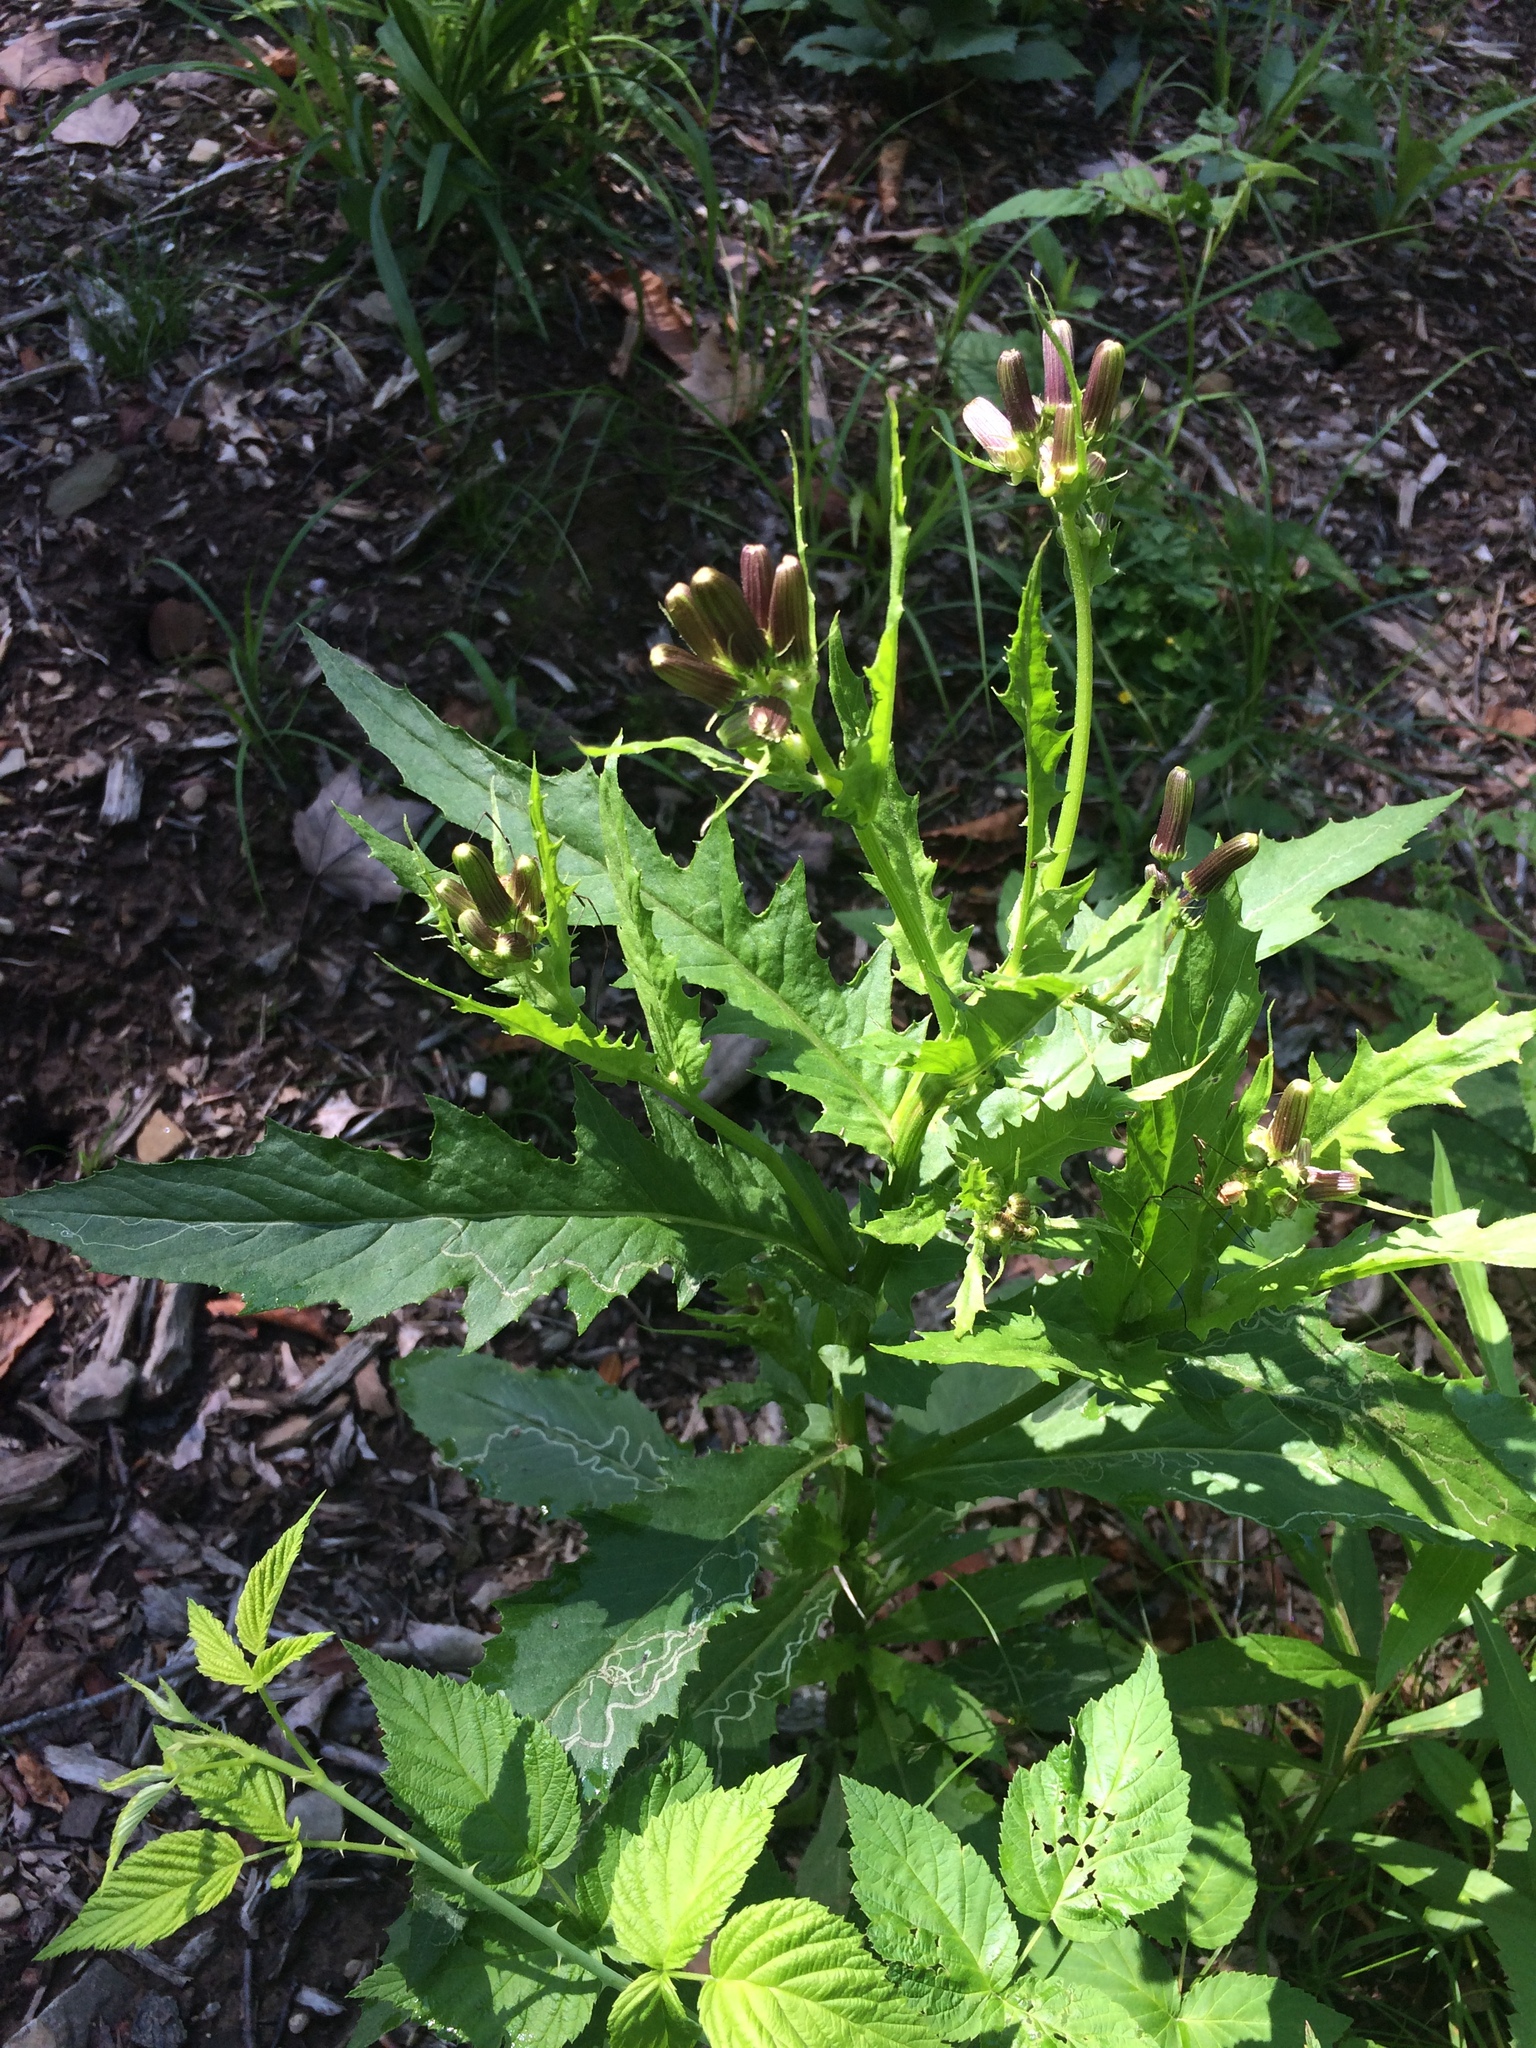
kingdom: Plantae
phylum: Tracheophyta
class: Magnoliopsida
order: Asterales
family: Asteraceae
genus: Erechtites
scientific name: Erechtites hieraciifolius
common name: American burnweed
